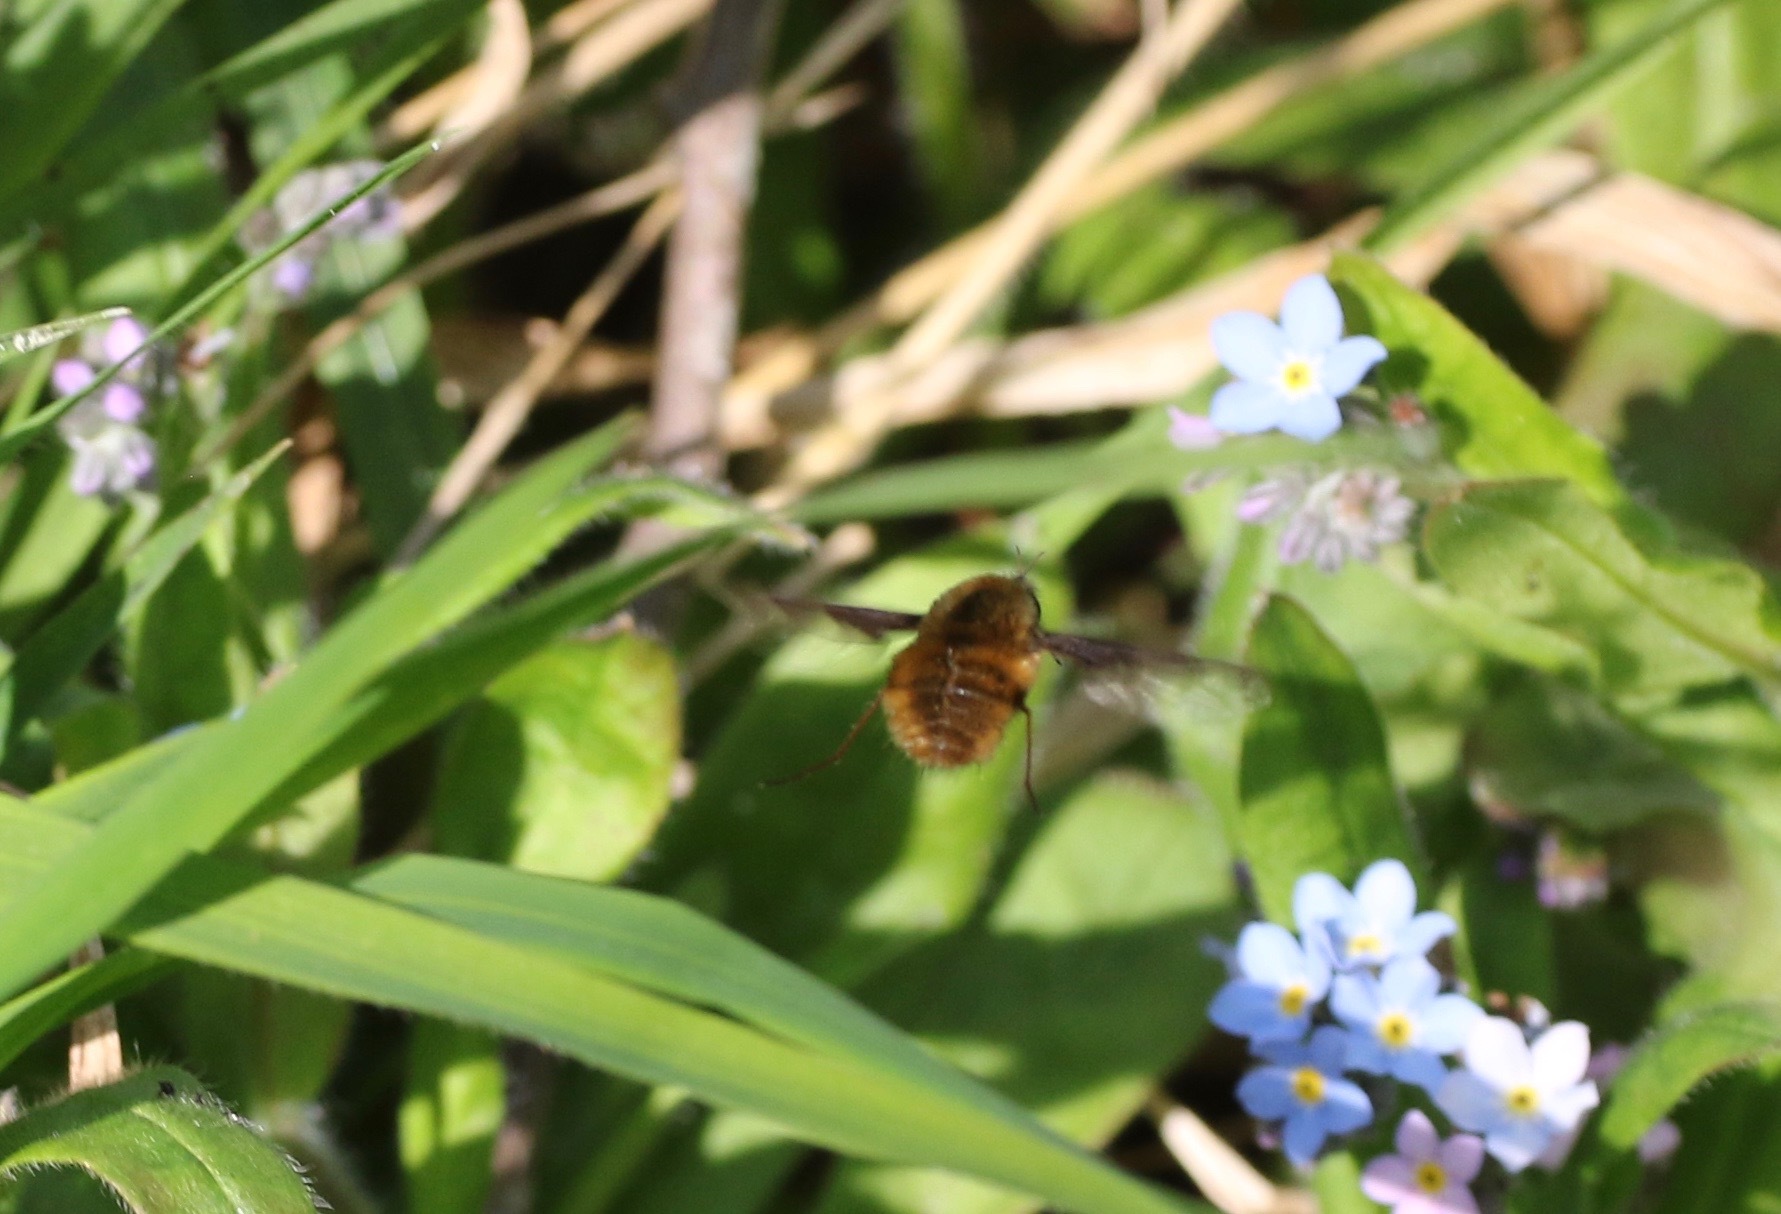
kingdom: Animalia
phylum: Arthropoda
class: Insecta
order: Diptera
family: Bombyliidae
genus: Bombylius
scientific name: Bombylius major
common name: Bee fly
